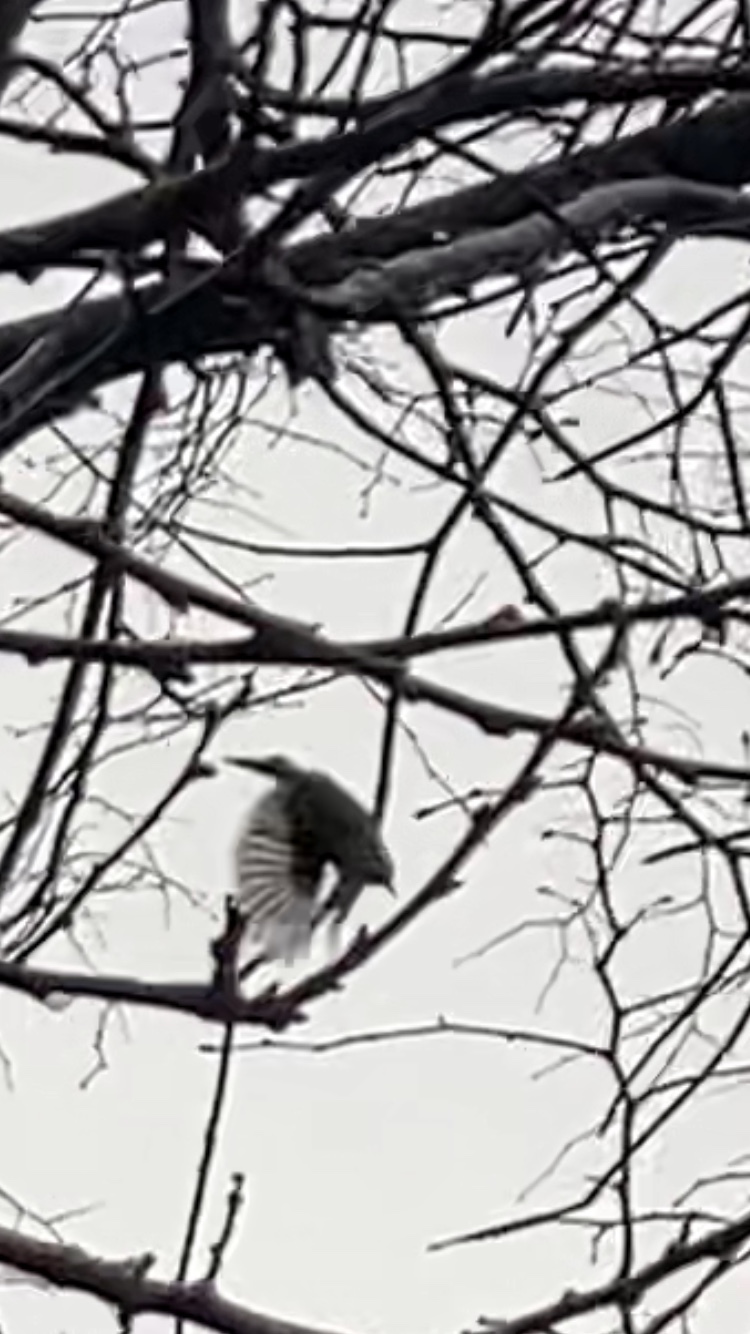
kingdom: Animalia
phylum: Chordata
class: Aves
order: Passeriformes
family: Muscicapidae
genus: Erithacus
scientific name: Erithacus rubecula
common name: European robin
